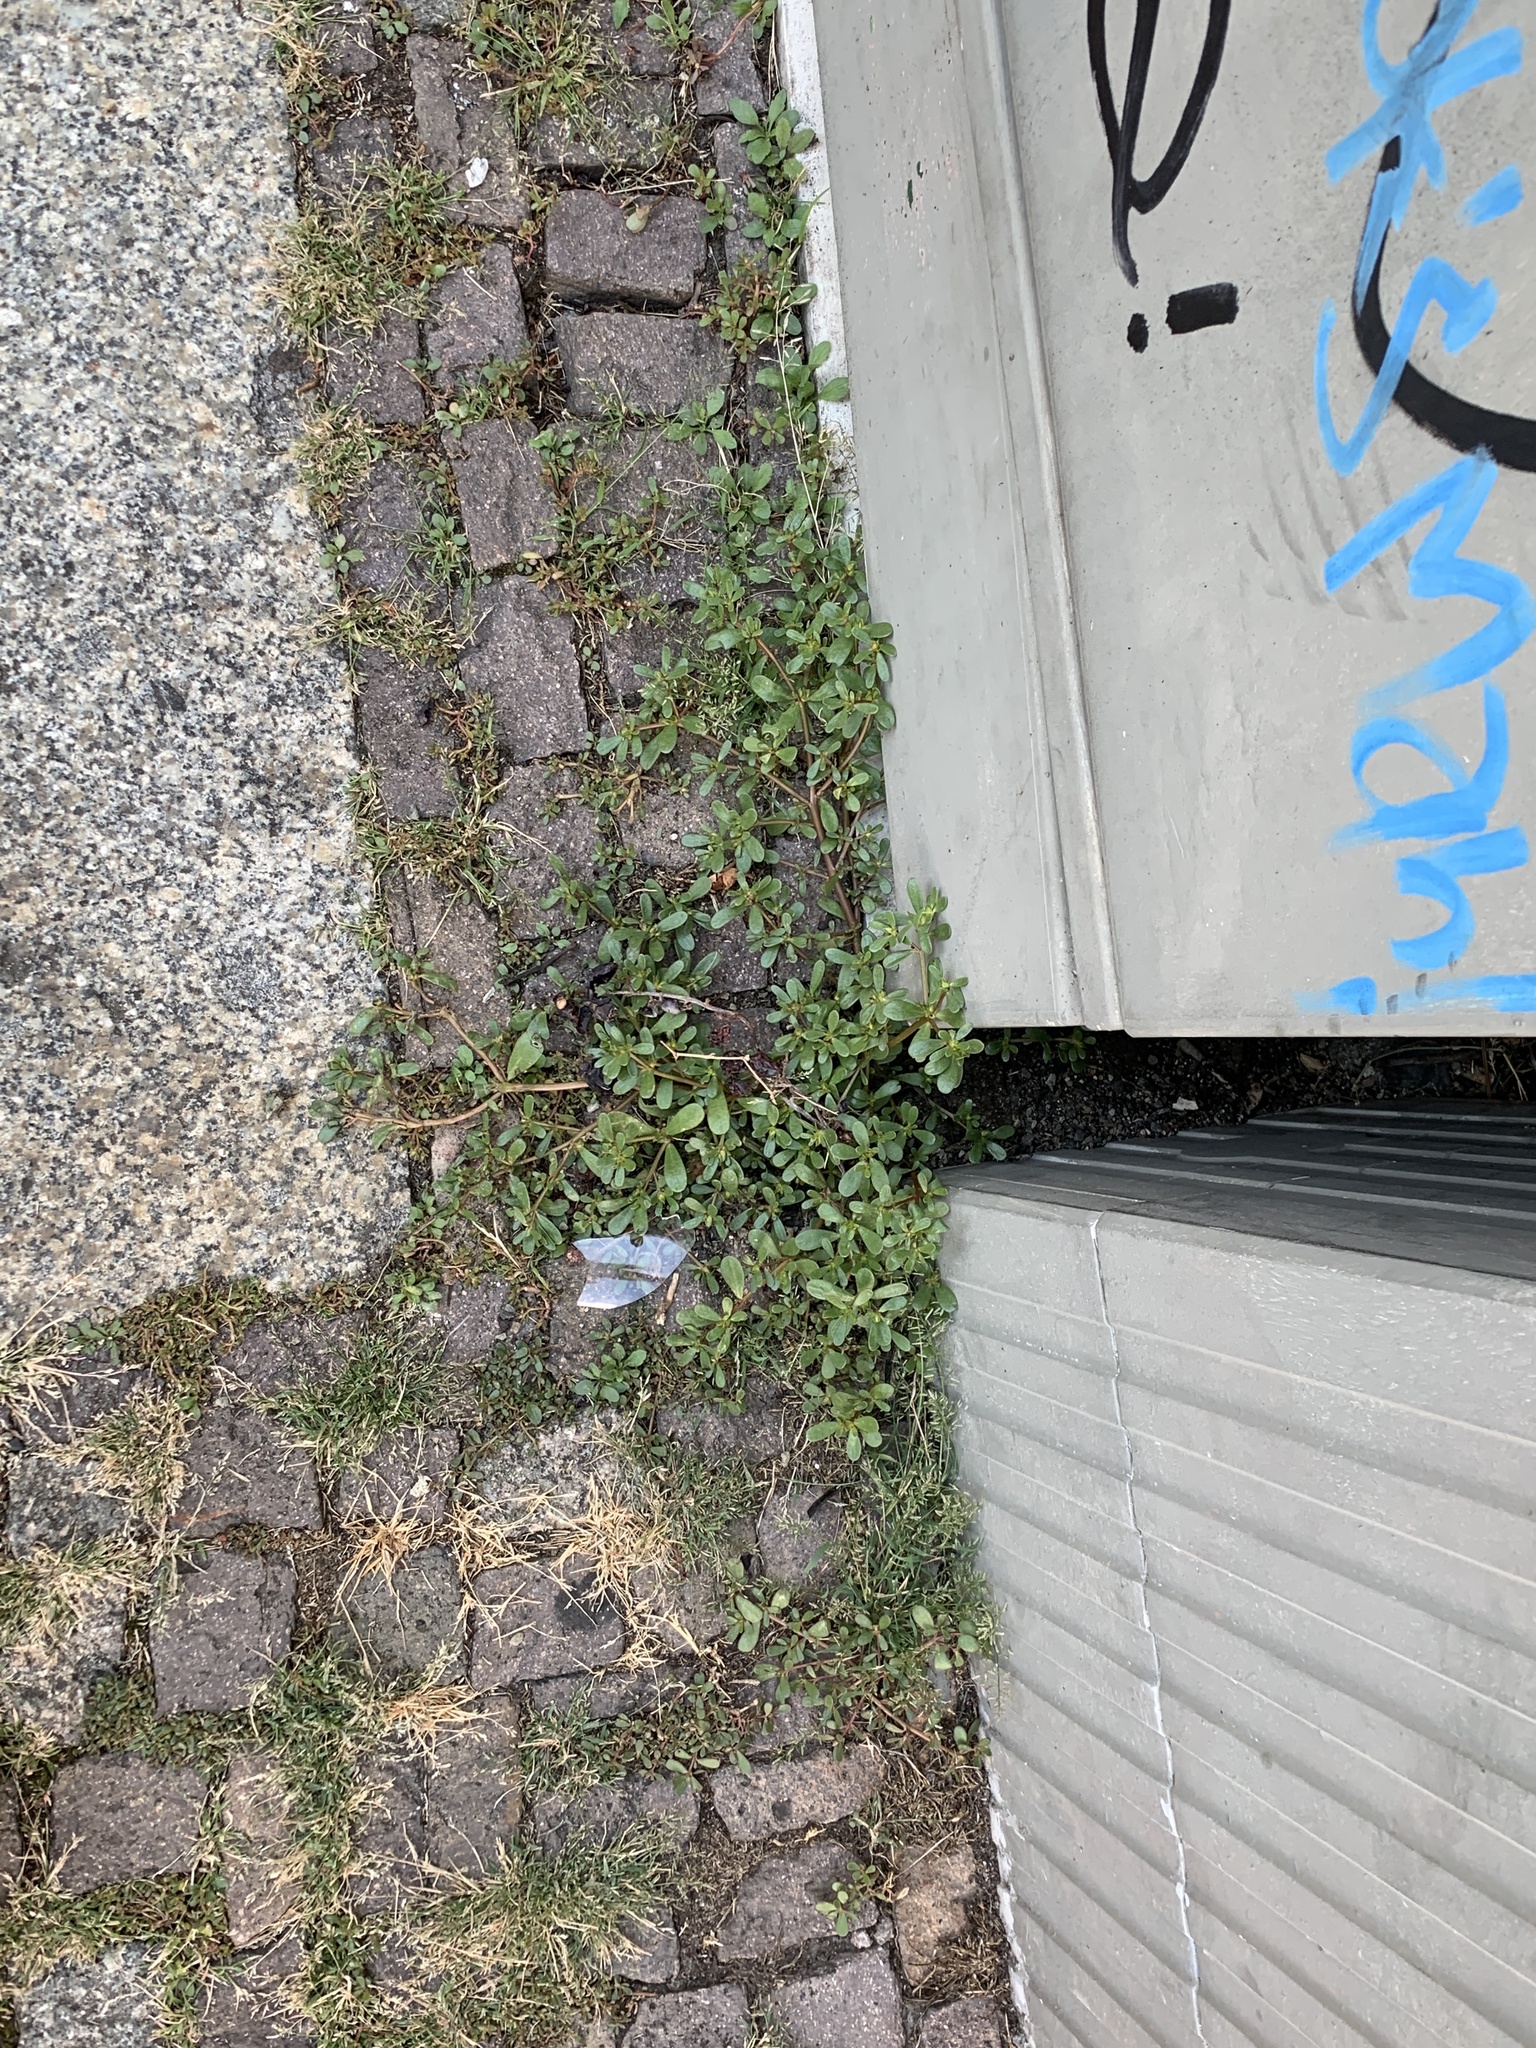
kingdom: Plantae
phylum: Tracheophyta
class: Magnoliopsida
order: Caryophyllales
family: Portulacaceae
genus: Portulaca
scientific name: Portulaca oleracea
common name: Common purslane
